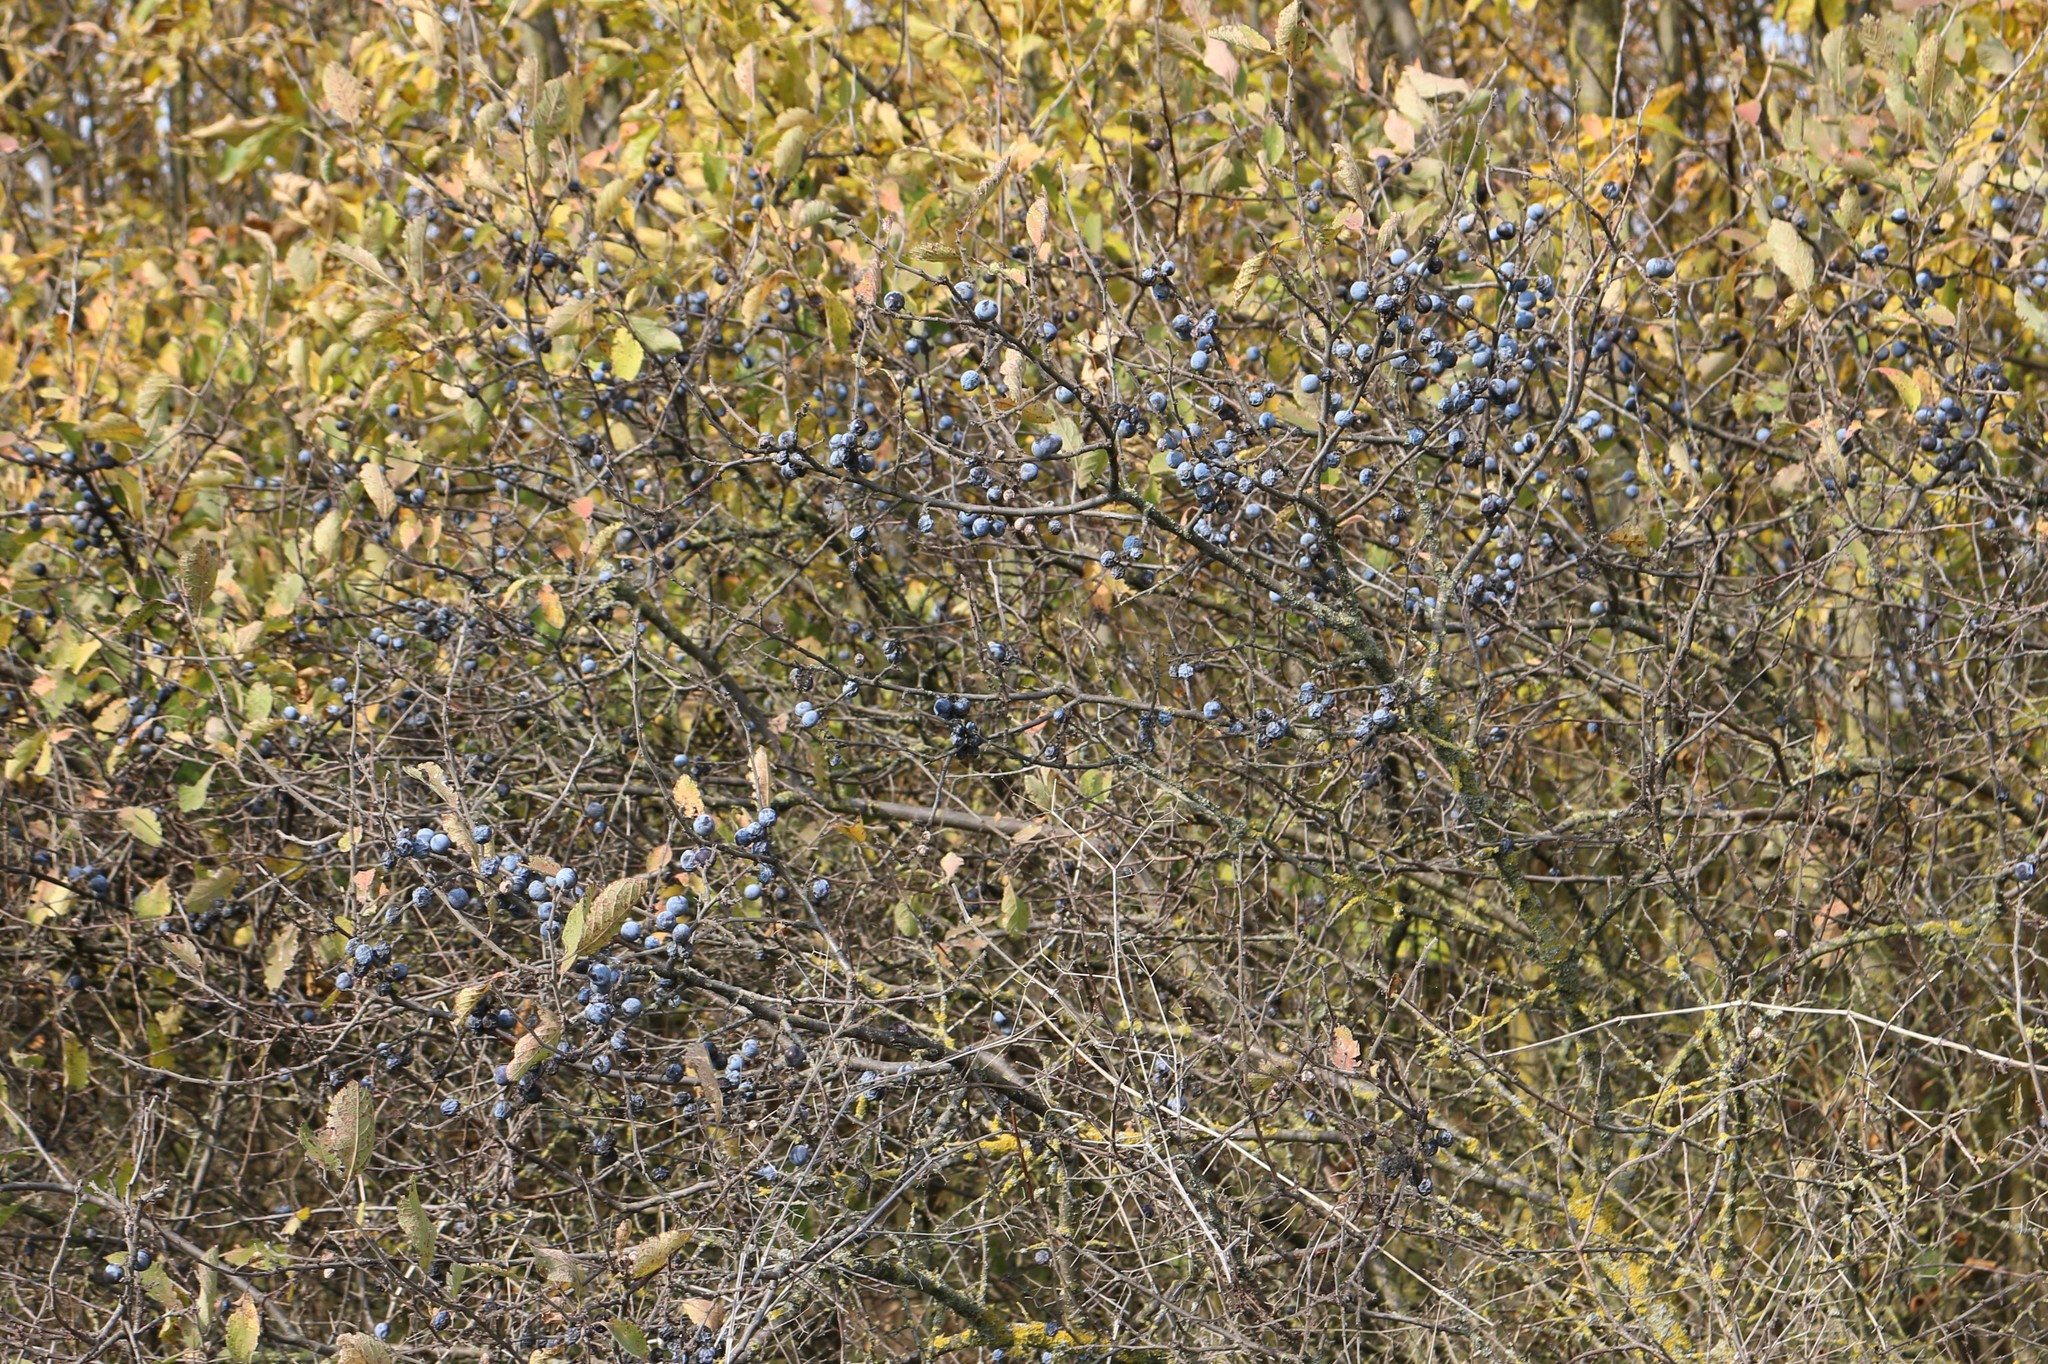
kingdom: Plantae
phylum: Tracheophyta
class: Magnoliopsida
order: Rosales
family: Rosaceae
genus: Prunus
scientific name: Prunus spinosa
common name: Blackthorn
